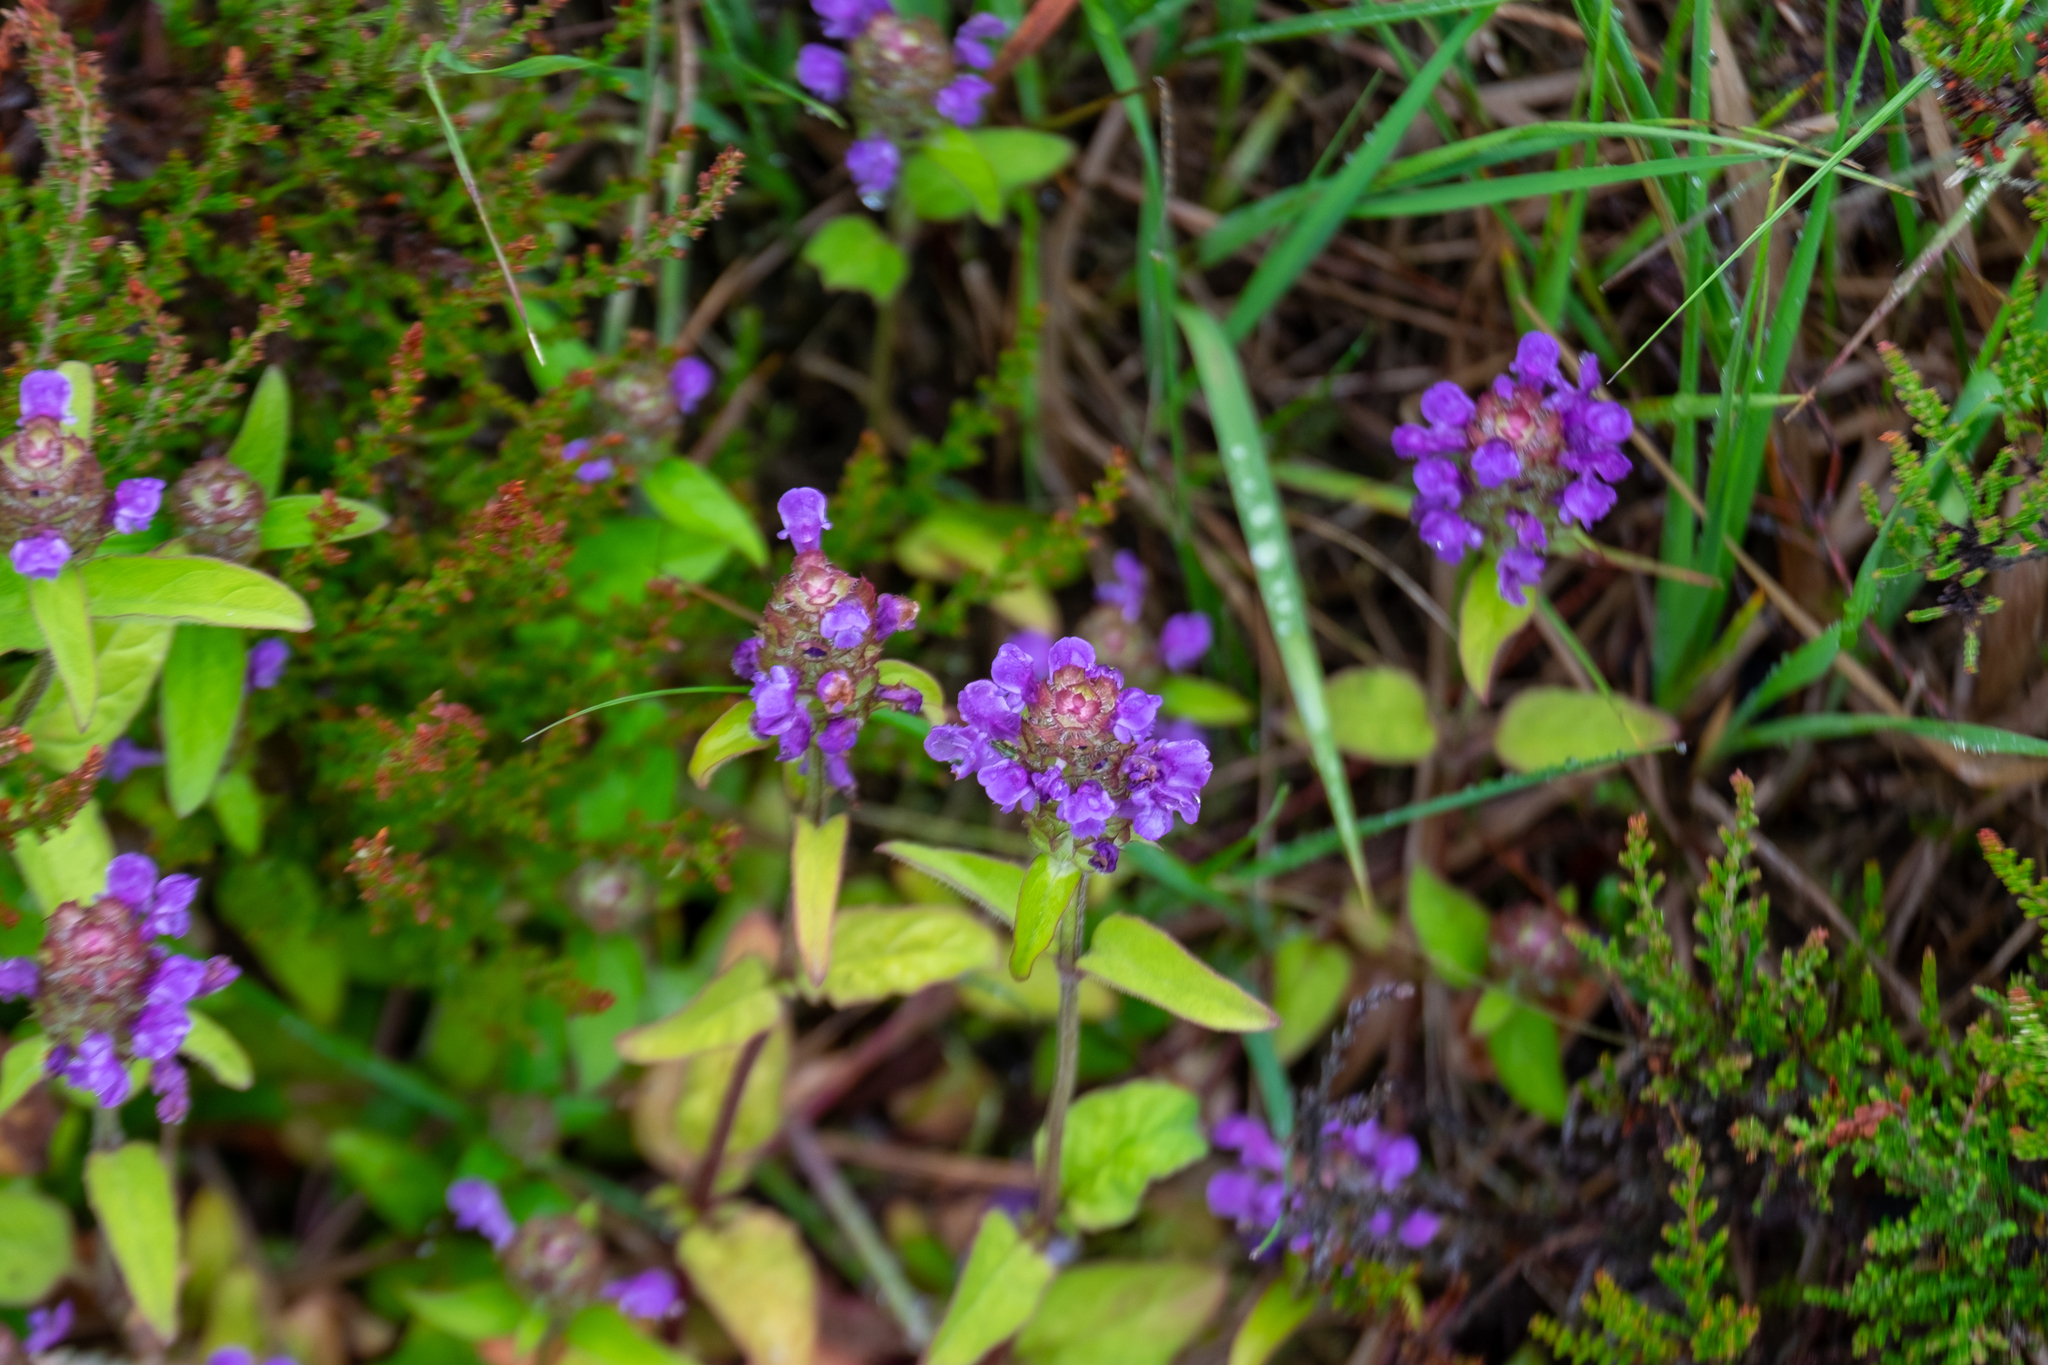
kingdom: Plantae
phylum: Tracheophyta
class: Magnoliopsida
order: Lamiales
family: Lamiaceae
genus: Prunella
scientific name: Prunella vulgaris
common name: Heal-all
